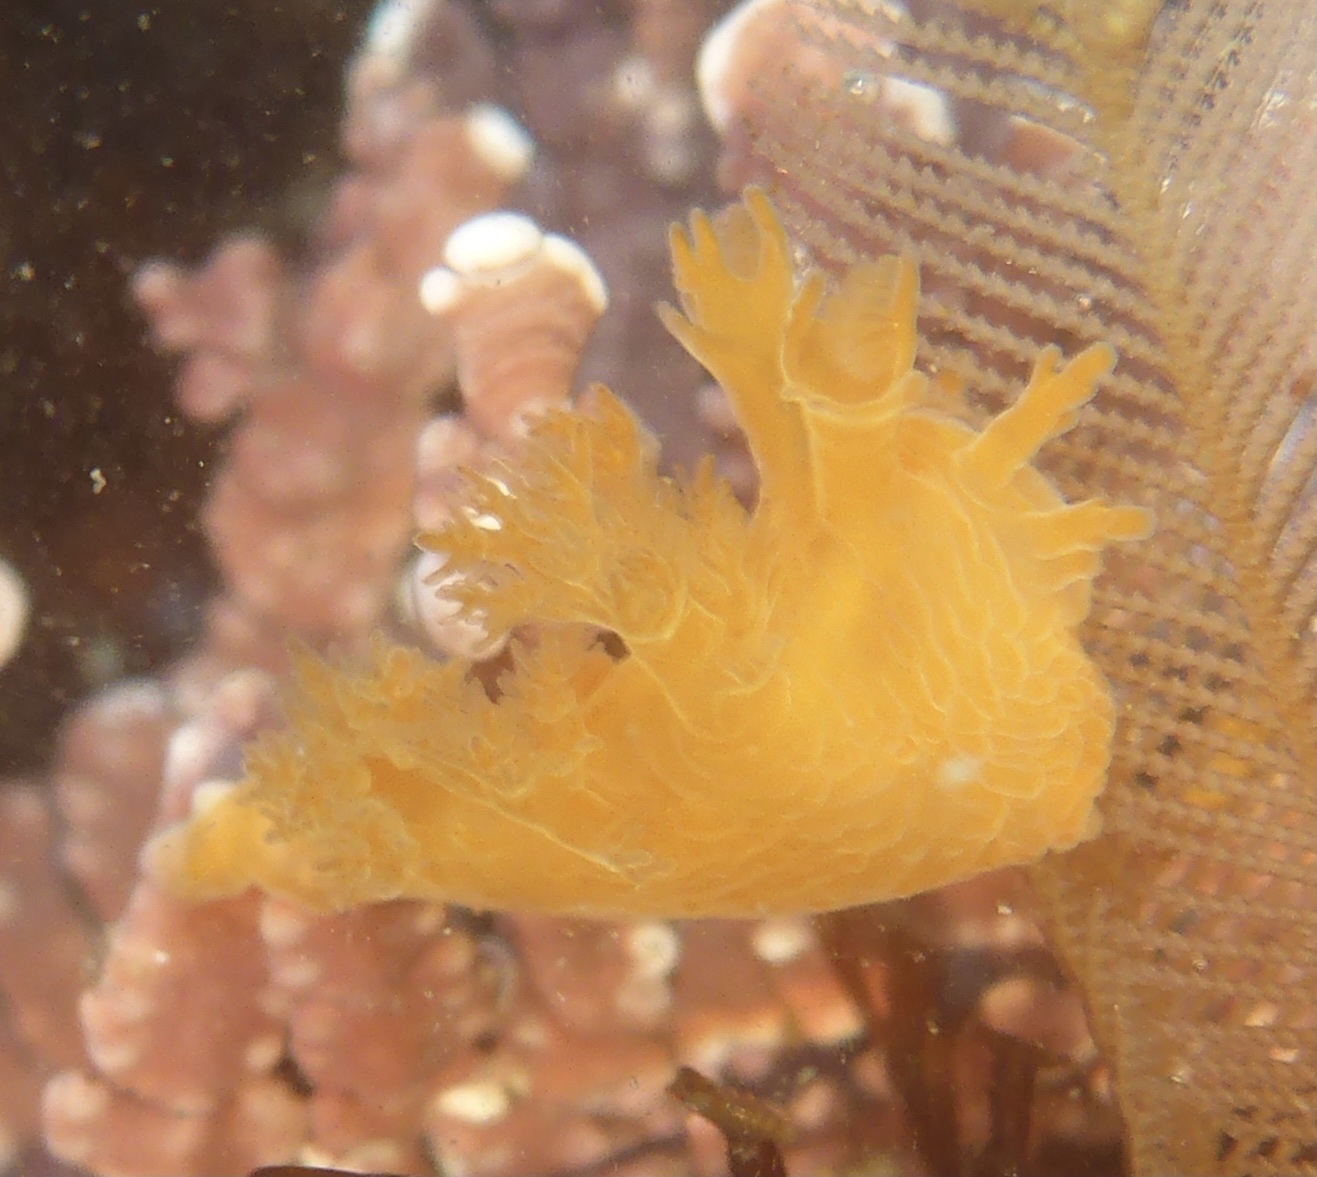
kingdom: Animalia
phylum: Mollusca
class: Gastropoda
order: Nudibranchia
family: Dendronotidae
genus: Dendronotus
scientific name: Dendronotus subramosus
